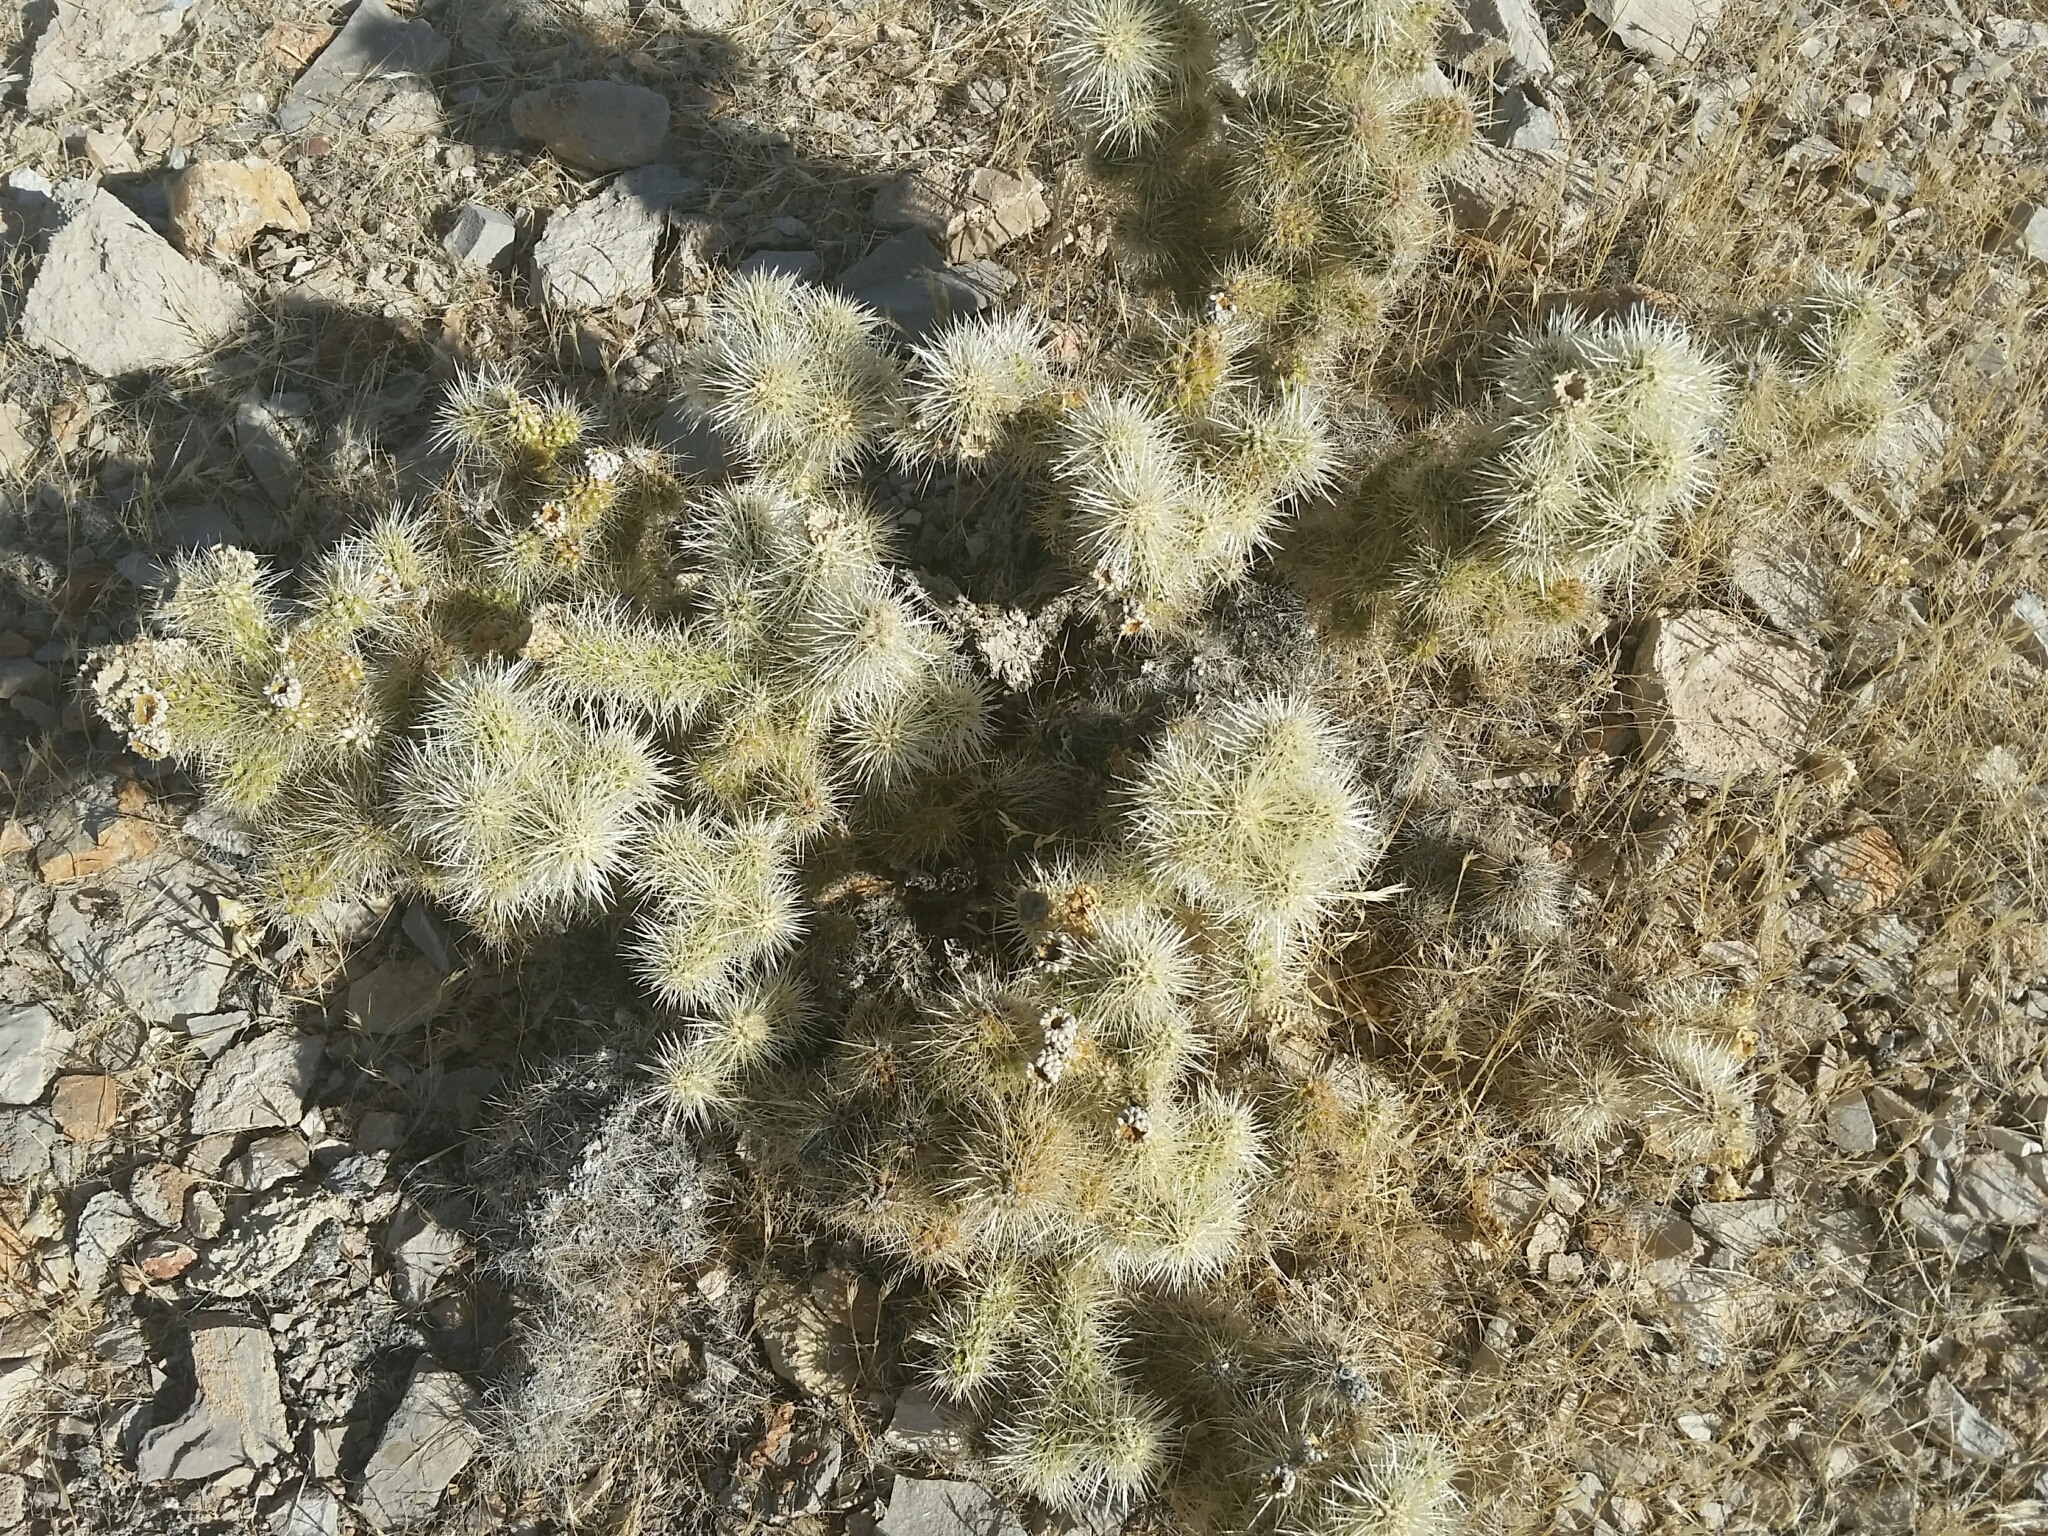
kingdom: Plantae
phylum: Tracheophyta
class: Magnoliopsida
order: Caryophyllales
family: Cactaceae
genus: Cylindropuntia
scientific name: Cylindropuntia multigeniculata
